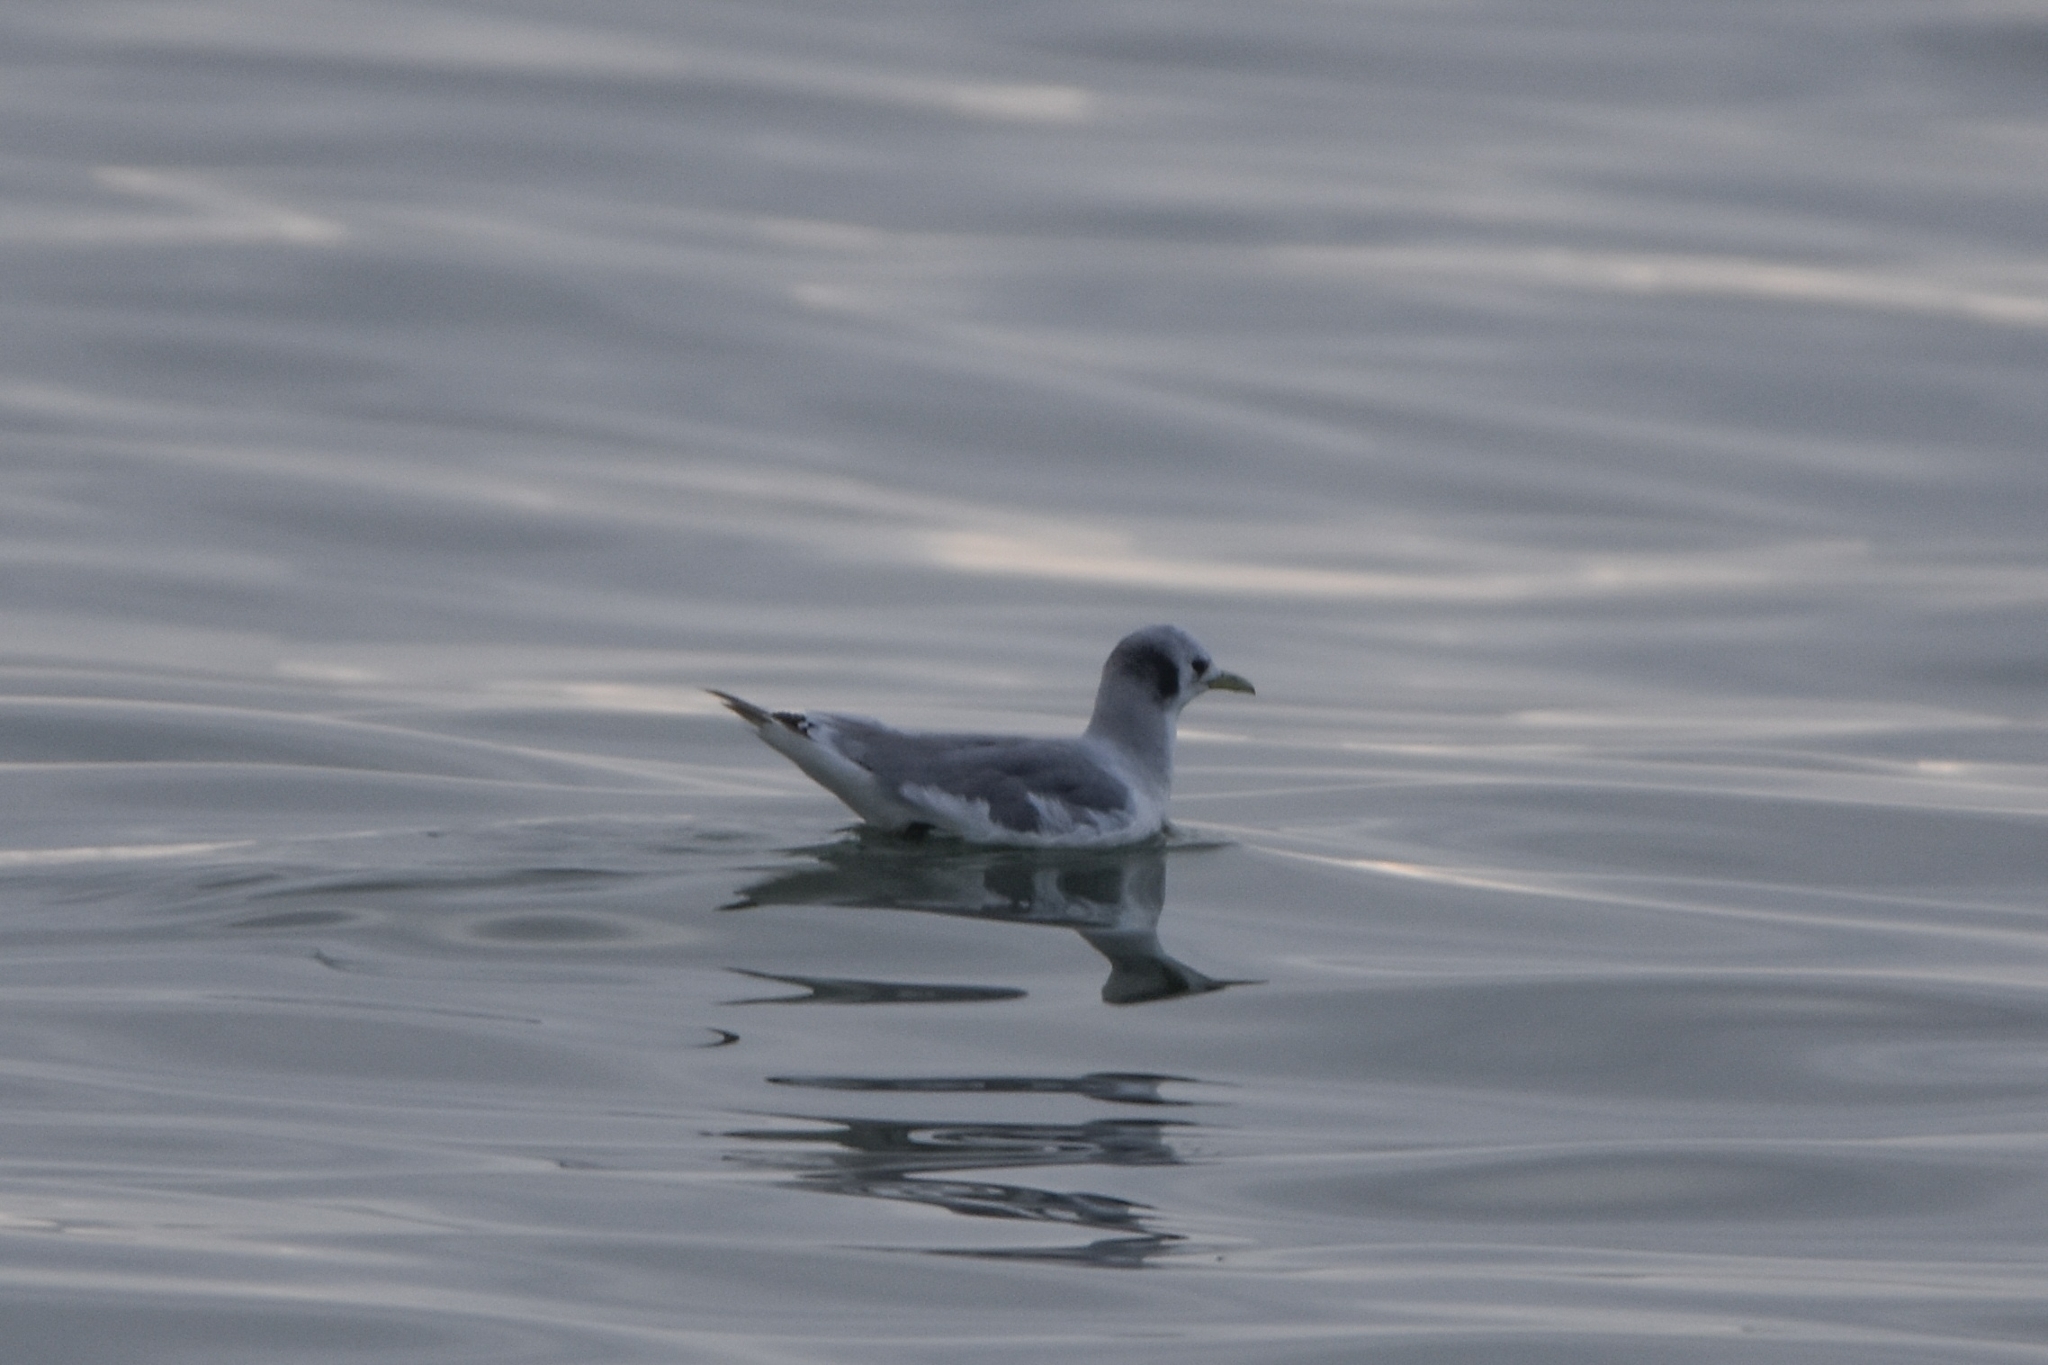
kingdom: Animalia
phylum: Chordata
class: Aves
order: Charadriiformes
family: Laridae
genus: Rissa
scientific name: Rissa tridactyla
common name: Black-legged kittiwake
